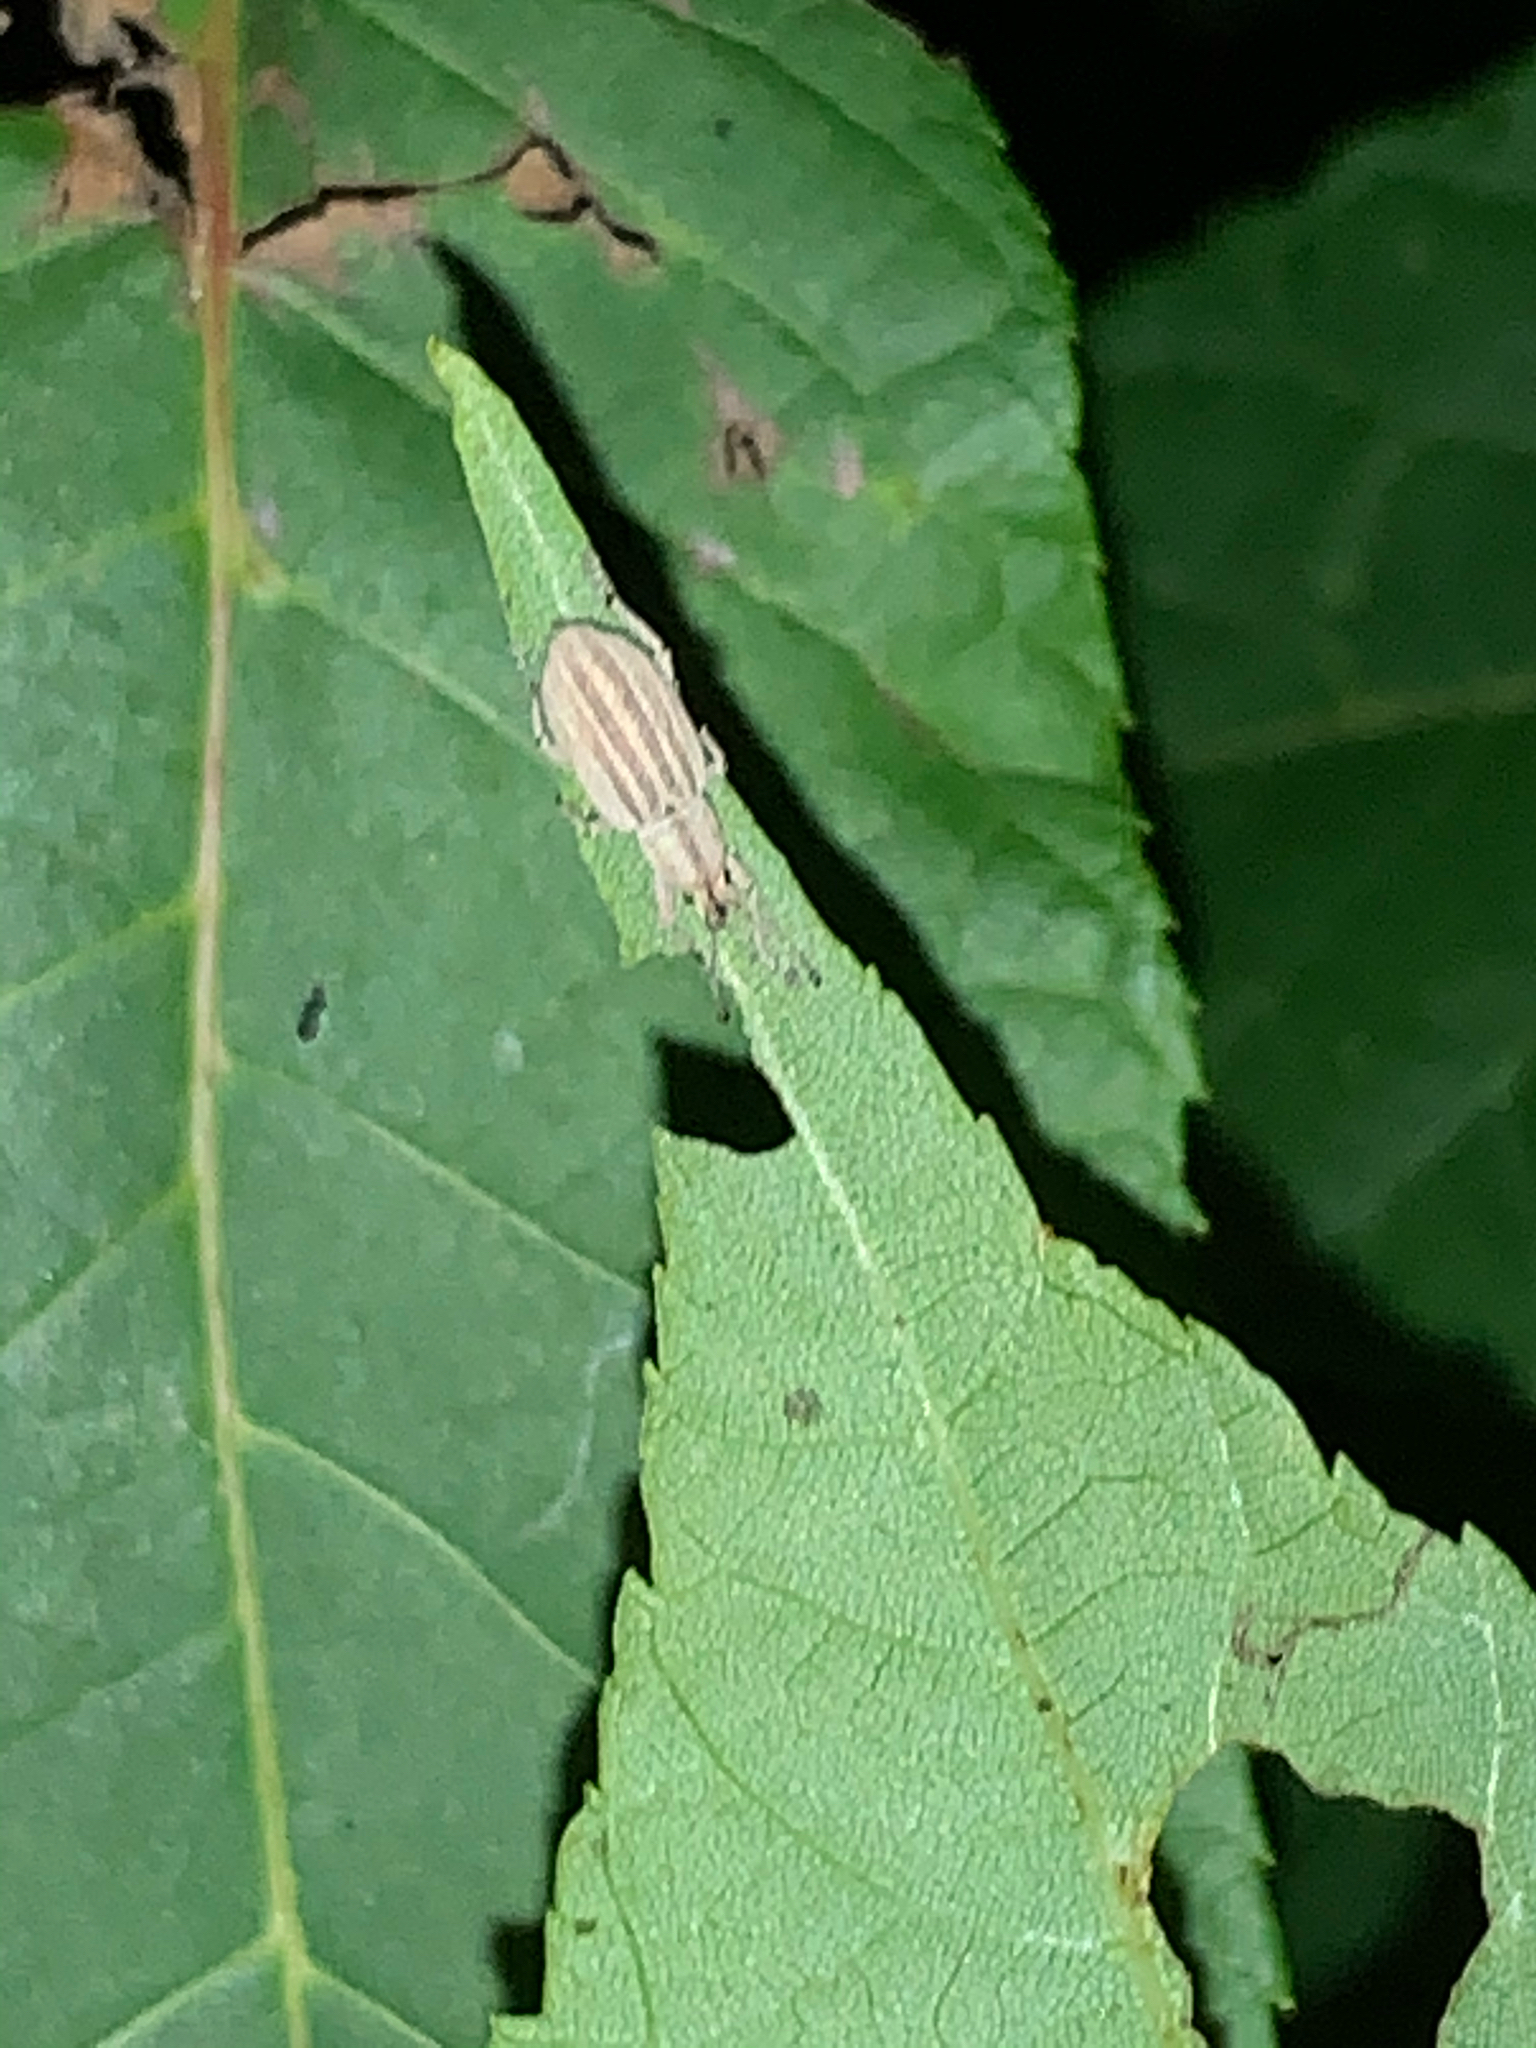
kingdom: Animalia
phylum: Arthropoda
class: Insecta
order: Coleoptera
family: Curculionidae
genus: Aphrastus
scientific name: Aphrastus taeniatus
